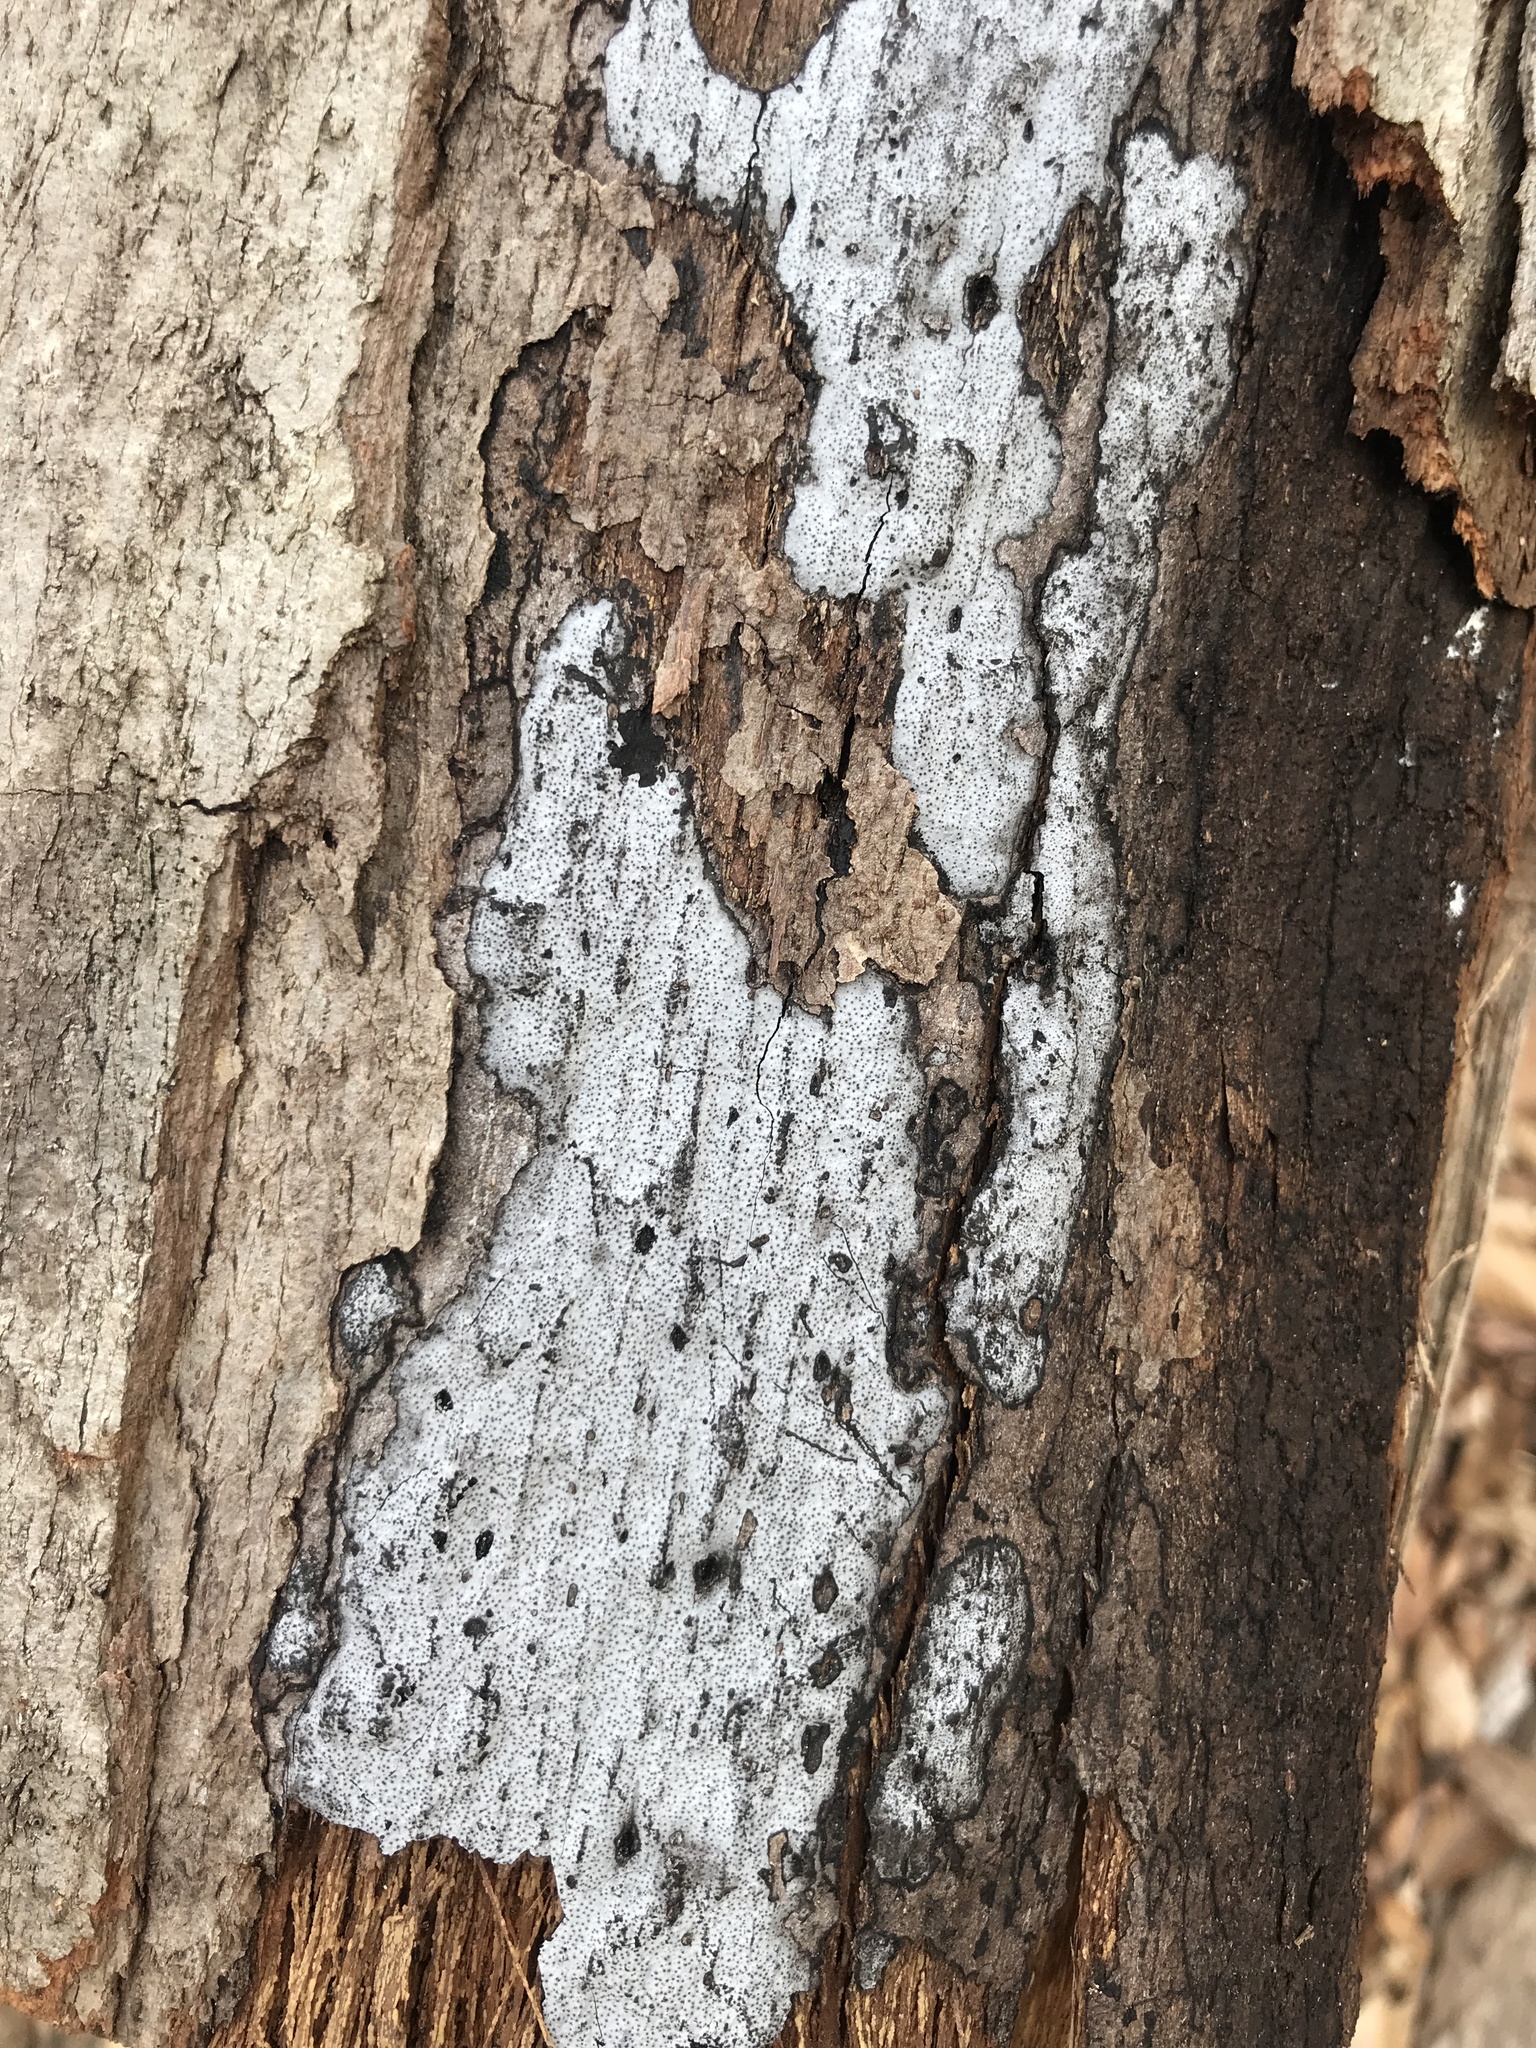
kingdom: Fungi
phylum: Ascomycota
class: Sordariomycetes
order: Xylariales
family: Graphostromataceae
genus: Biscogniauxia
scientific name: Biscogniauxia atropunctata
